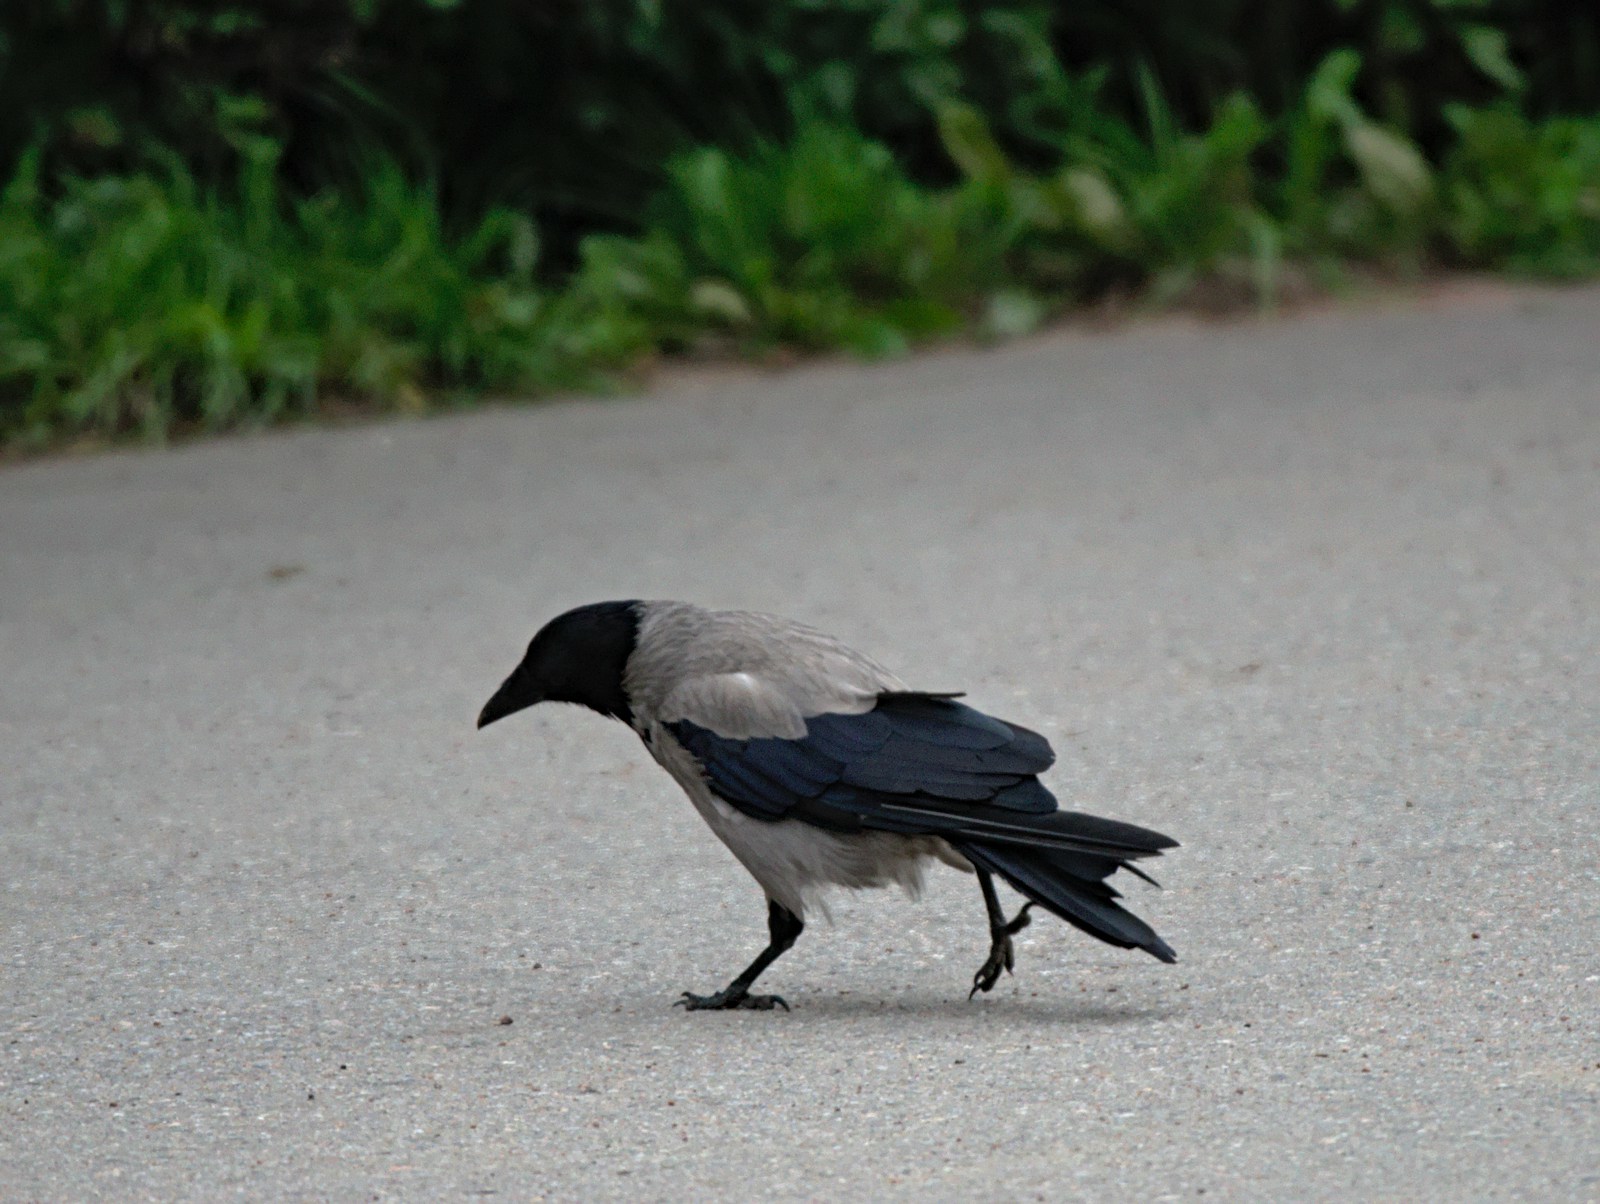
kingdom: Animalia
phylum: Chordata
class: Aves
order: Passeriformes
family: Corvidae
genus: Corvus
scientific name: Corvus cornix
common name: Hooded crow
